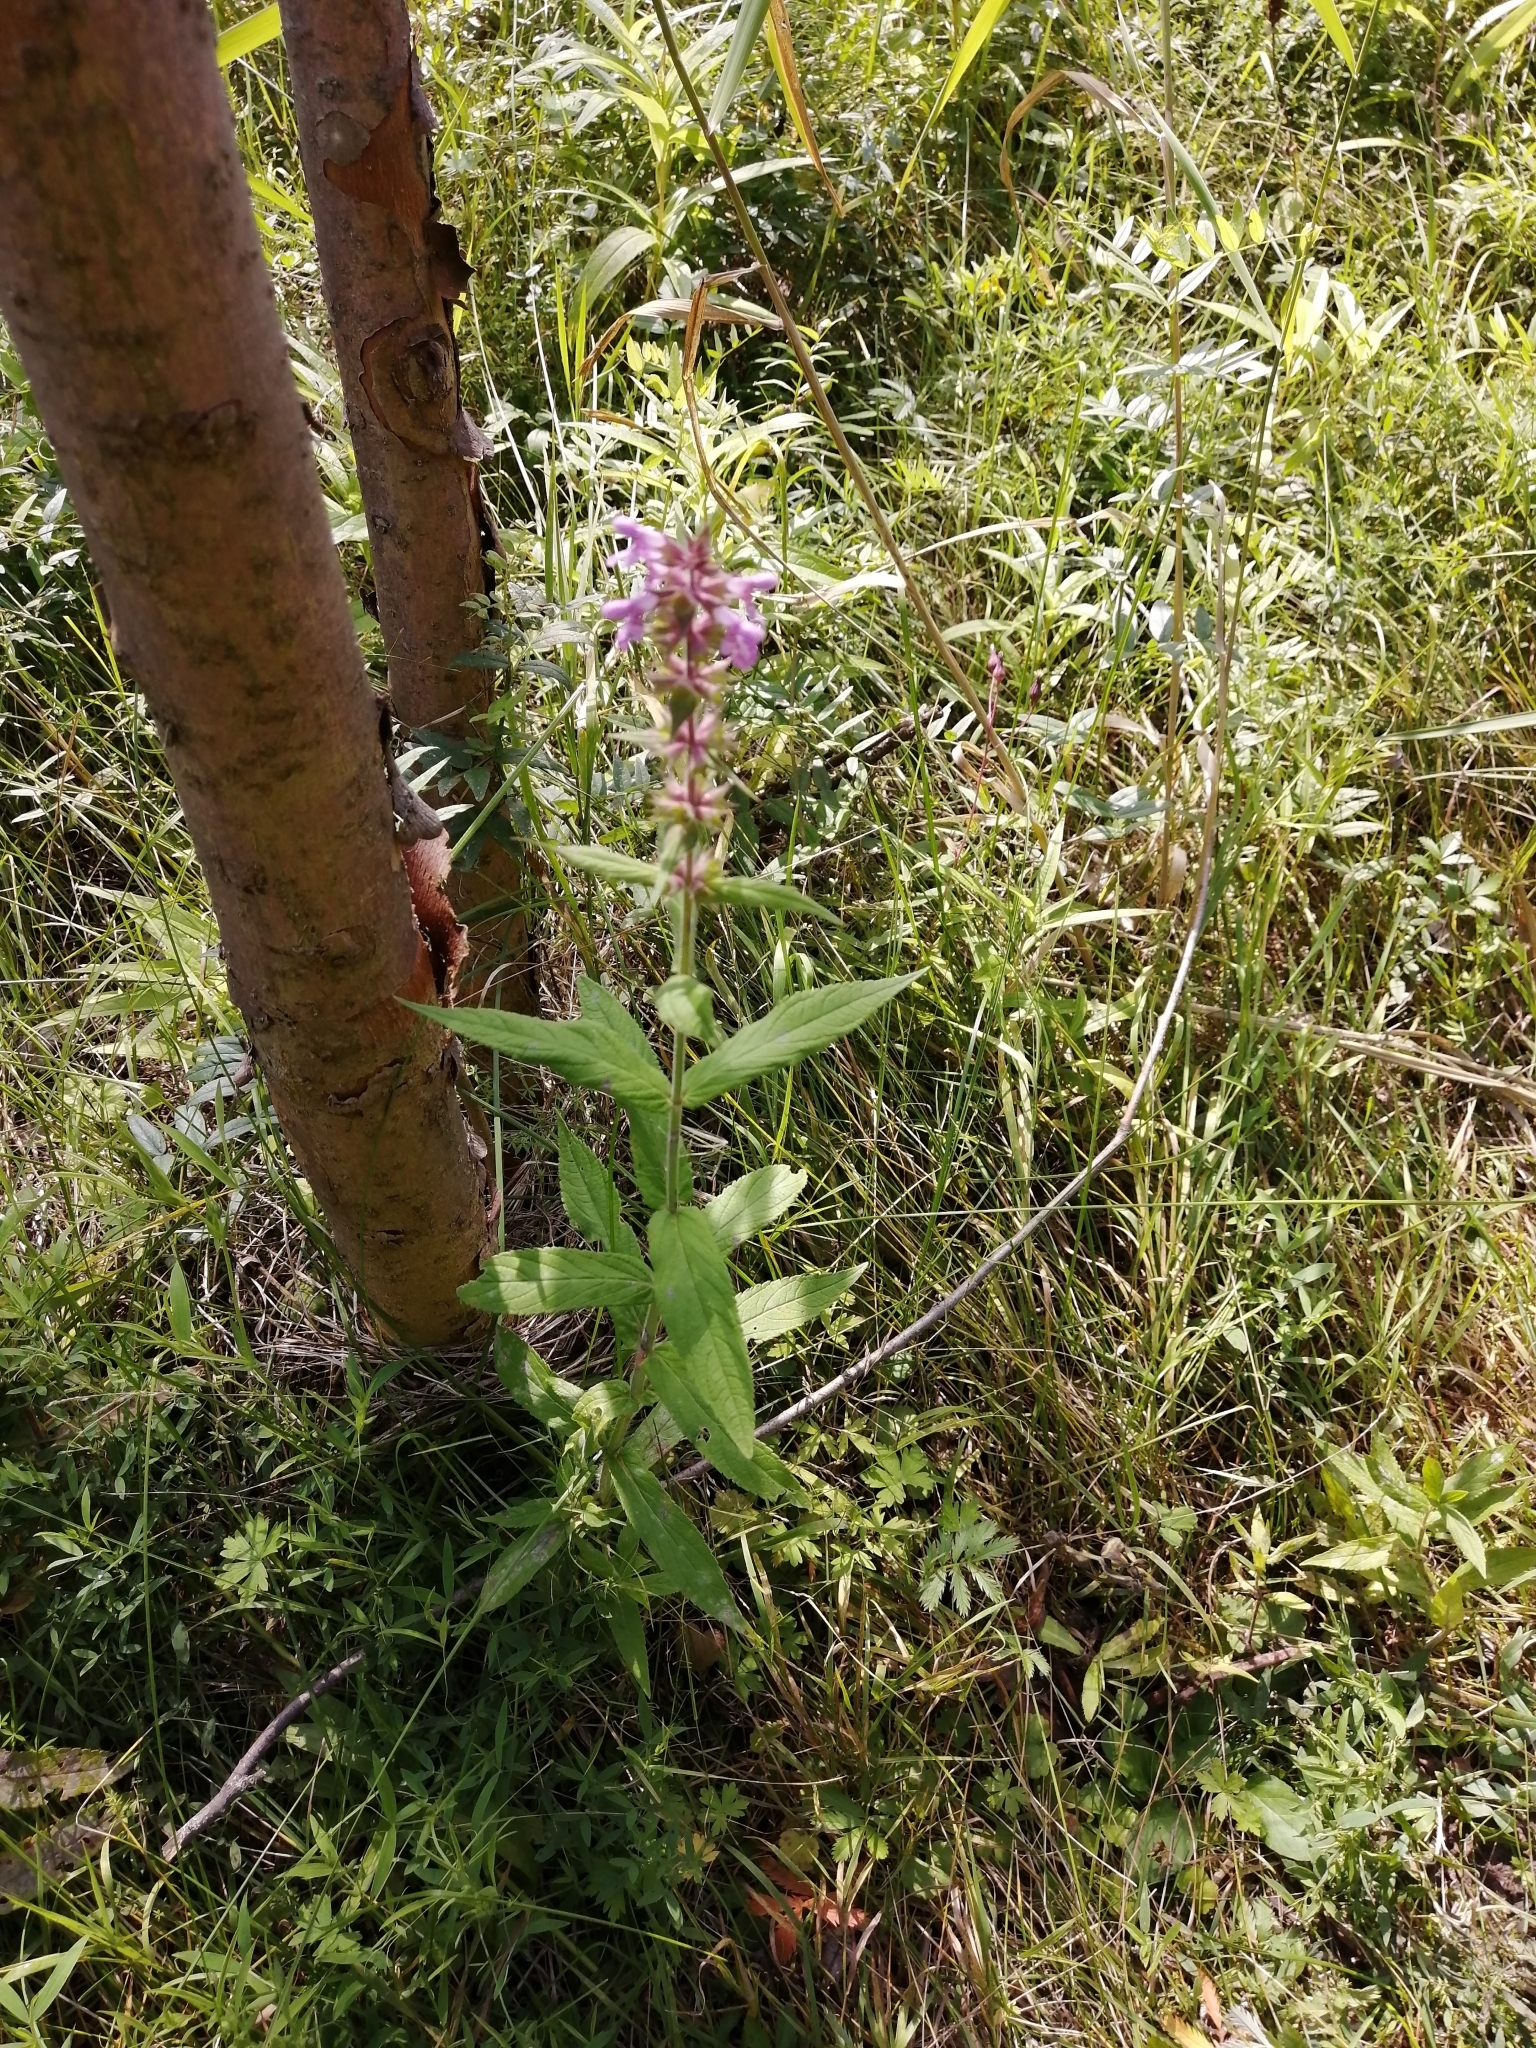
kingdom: Plantae
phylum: Tracheophyta
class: Magnoliopsida
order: Lamiales
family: Lamiaceae
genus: Stachys
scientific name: Stachys palustris
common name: Marsh woundwort
